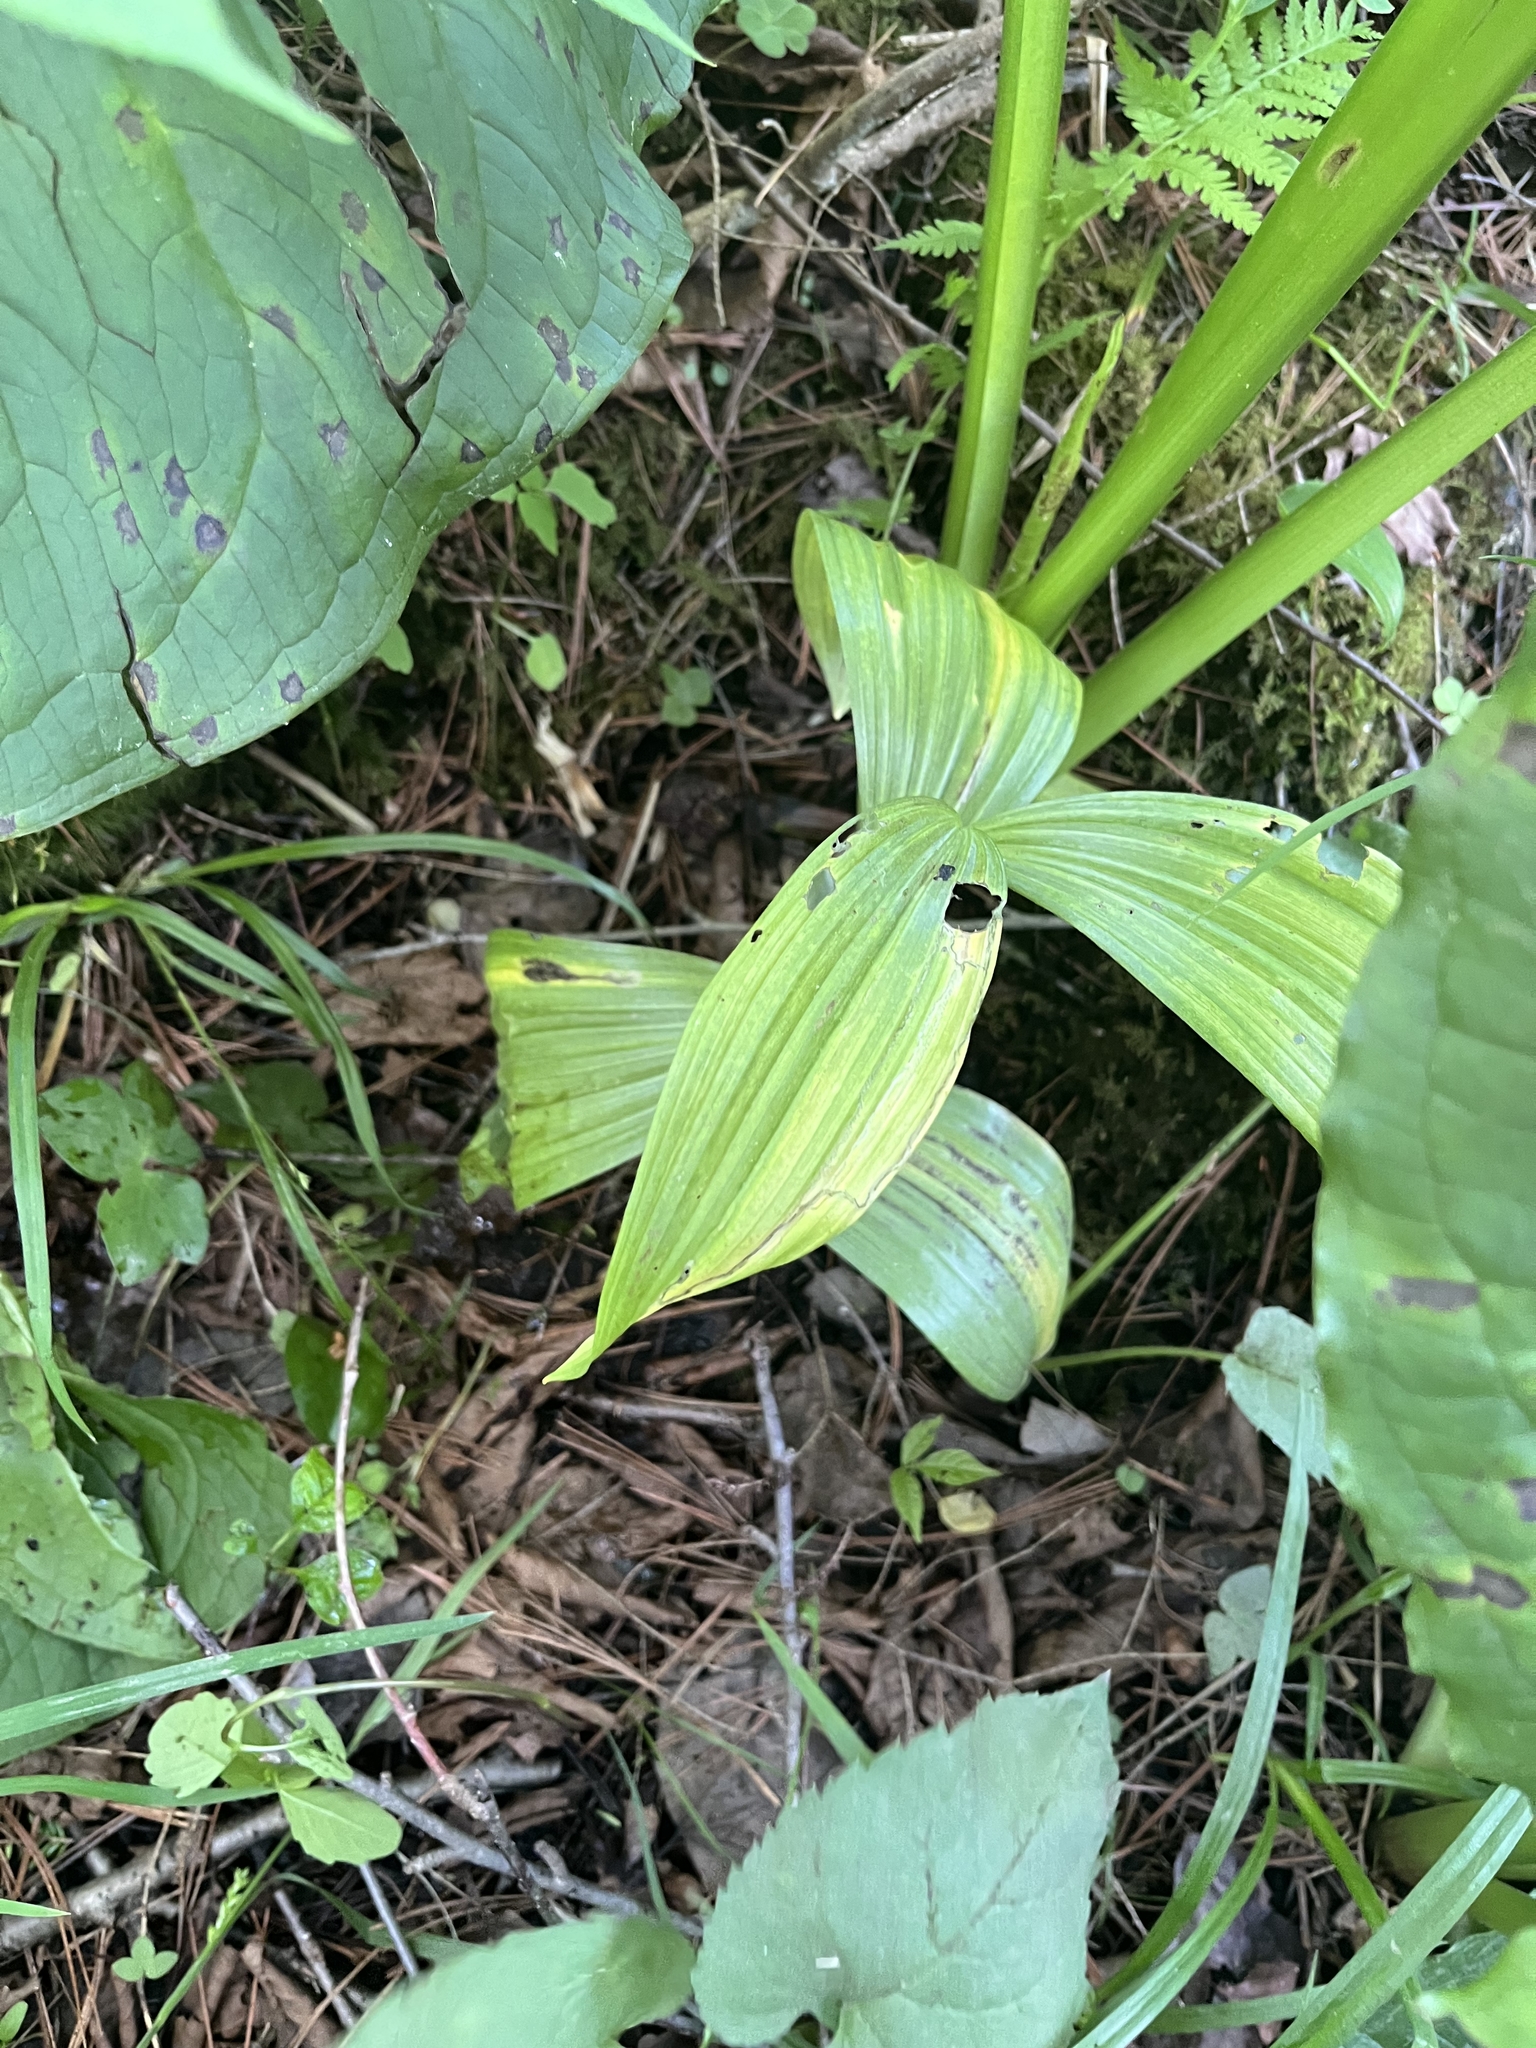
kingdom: Plantae
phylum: Tracheophyta
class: Liliopsida
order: Liliales
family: Melanthiaceae
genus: Veratrum
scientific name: Veratrum viride
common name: American false hellebore
